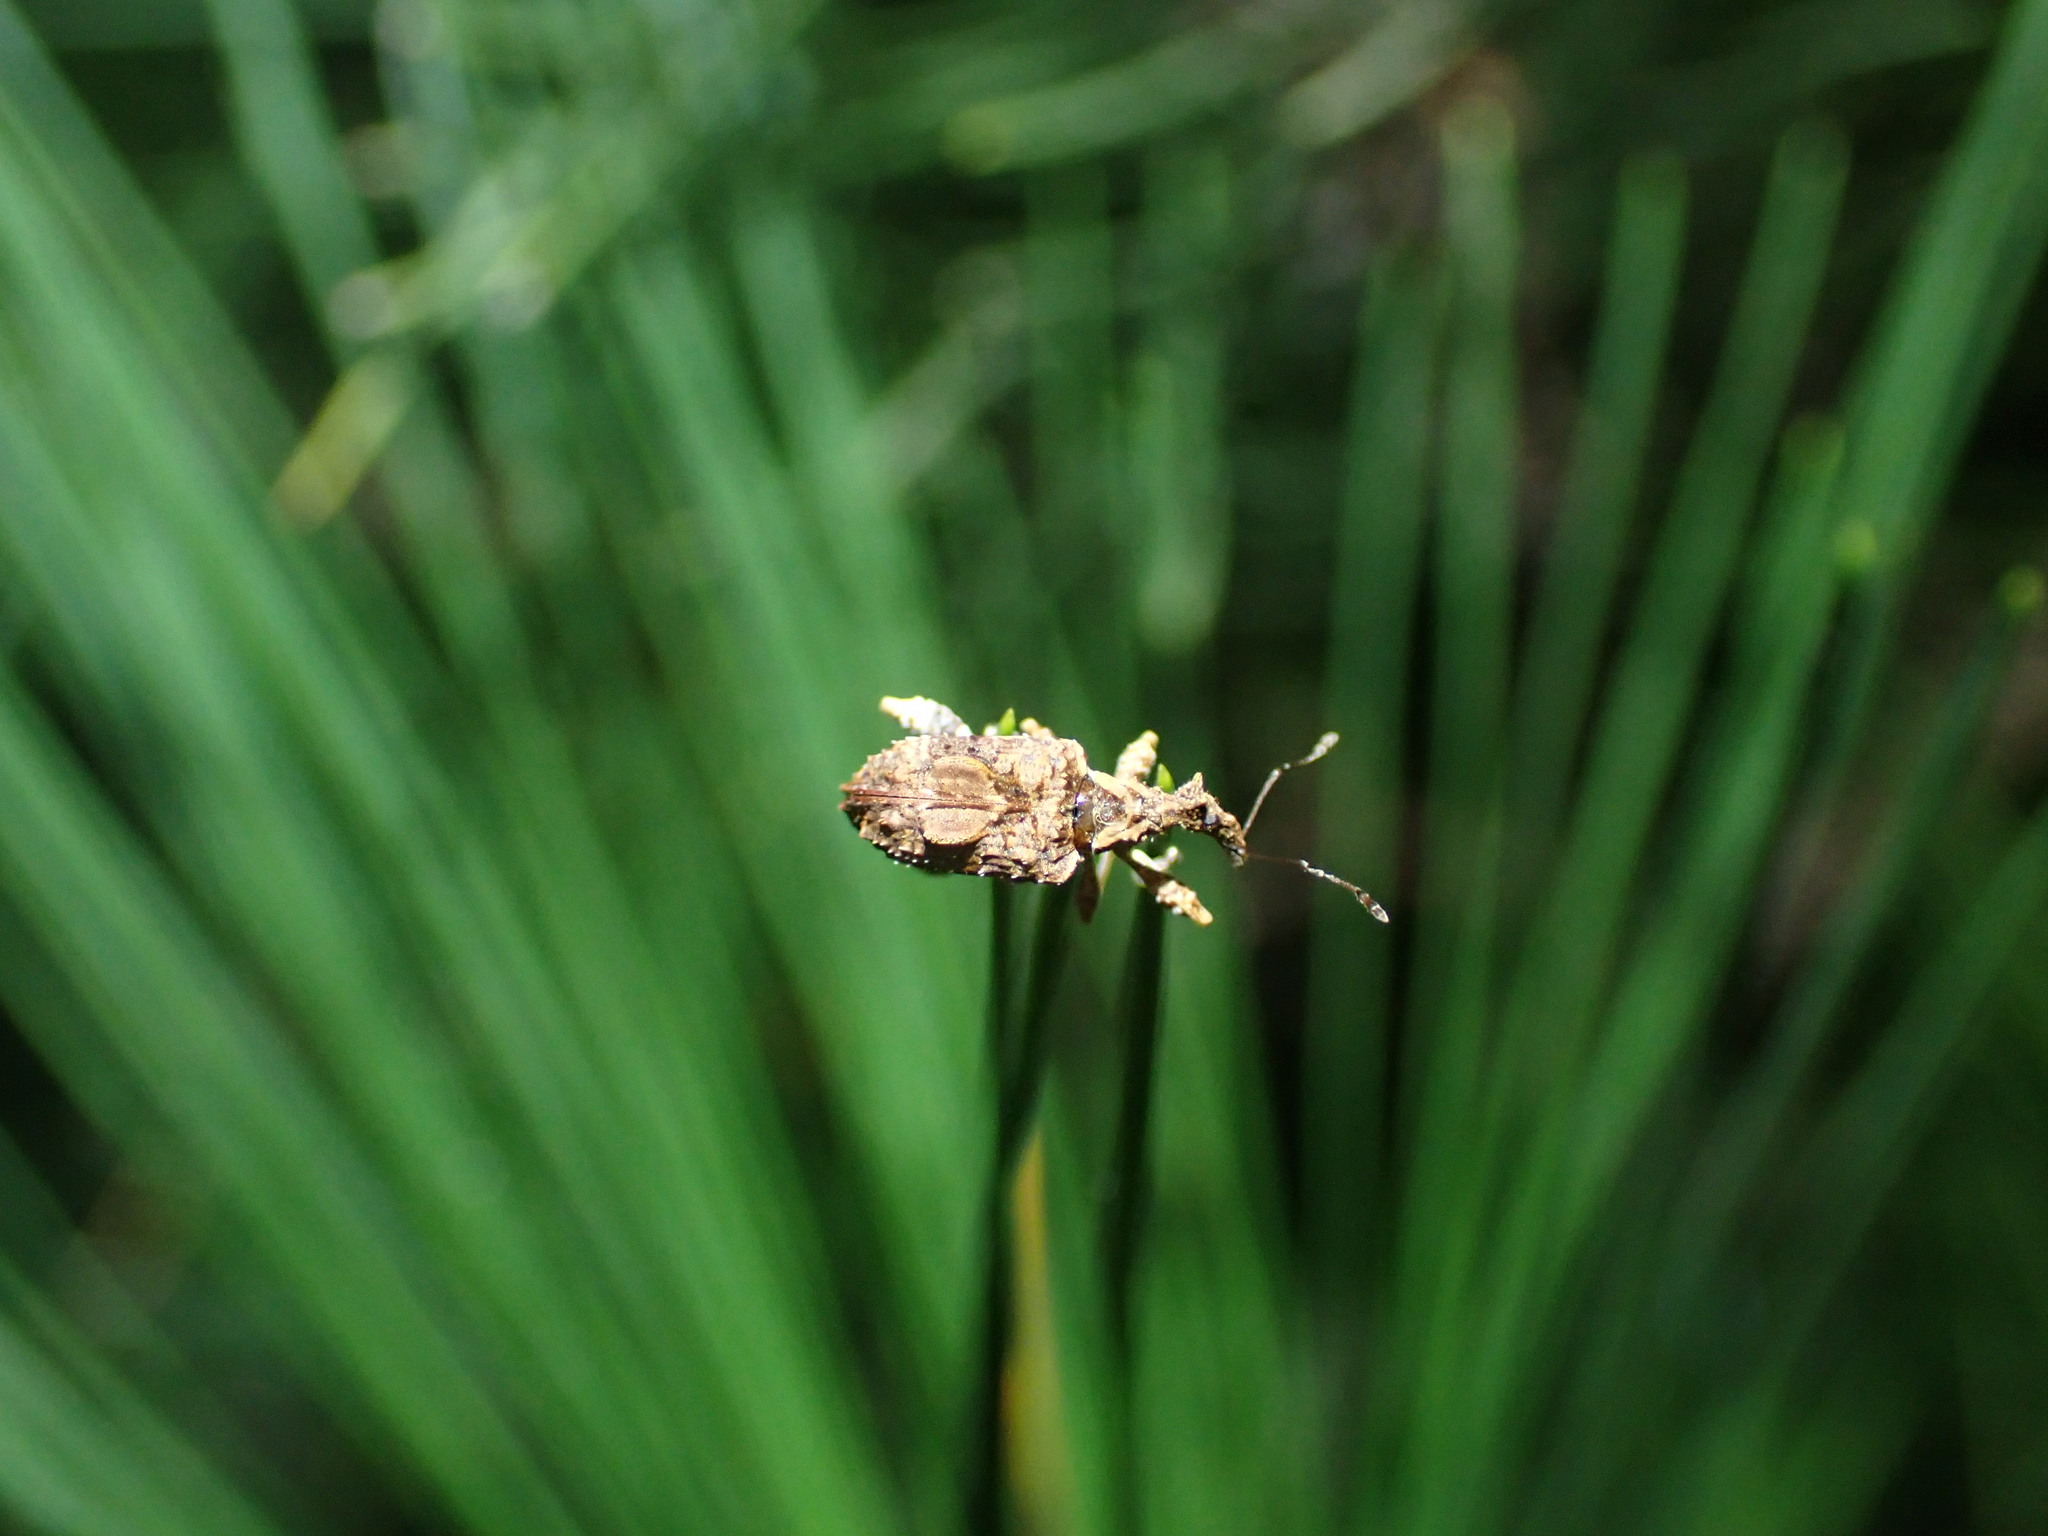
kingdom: Animalia
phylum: Arthropoda
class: Insecta
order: Coleoptera
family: Curculionidae
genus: Stephanorhynchus
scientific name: Stephanorhynchus curvipes
